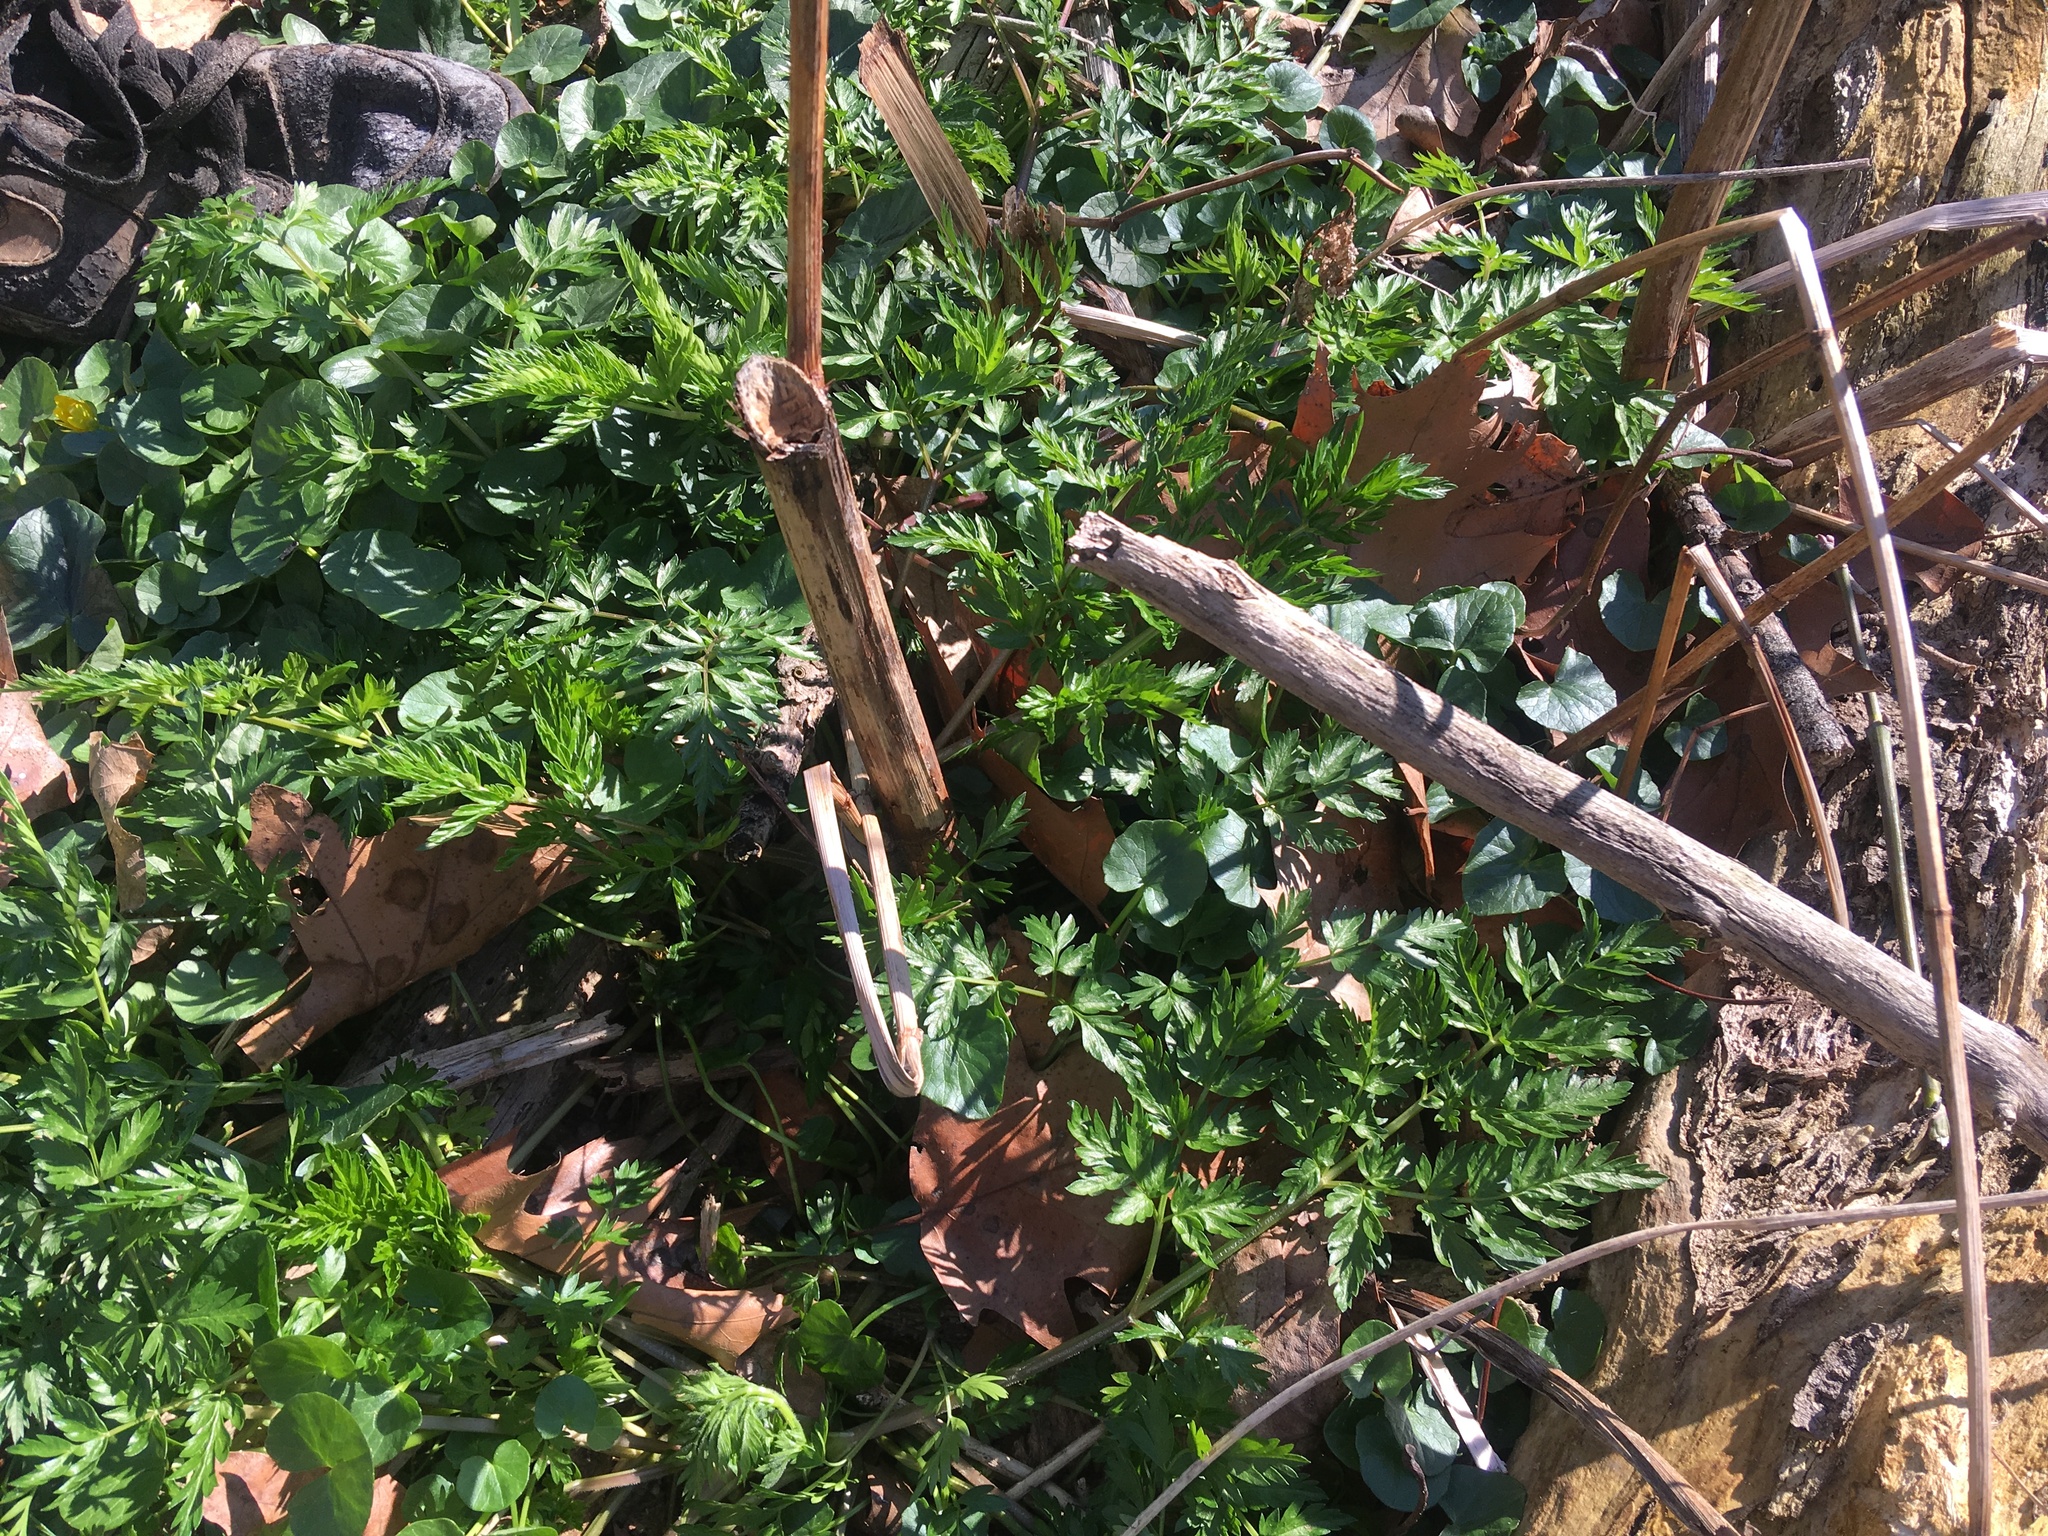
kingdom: Plantae
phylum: Tracheophyta
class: Magnoliopsida
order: Ranunculales
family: Ranunculaceae
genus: Ficaria
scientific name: Ficaria verna
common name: Lesser celandine
